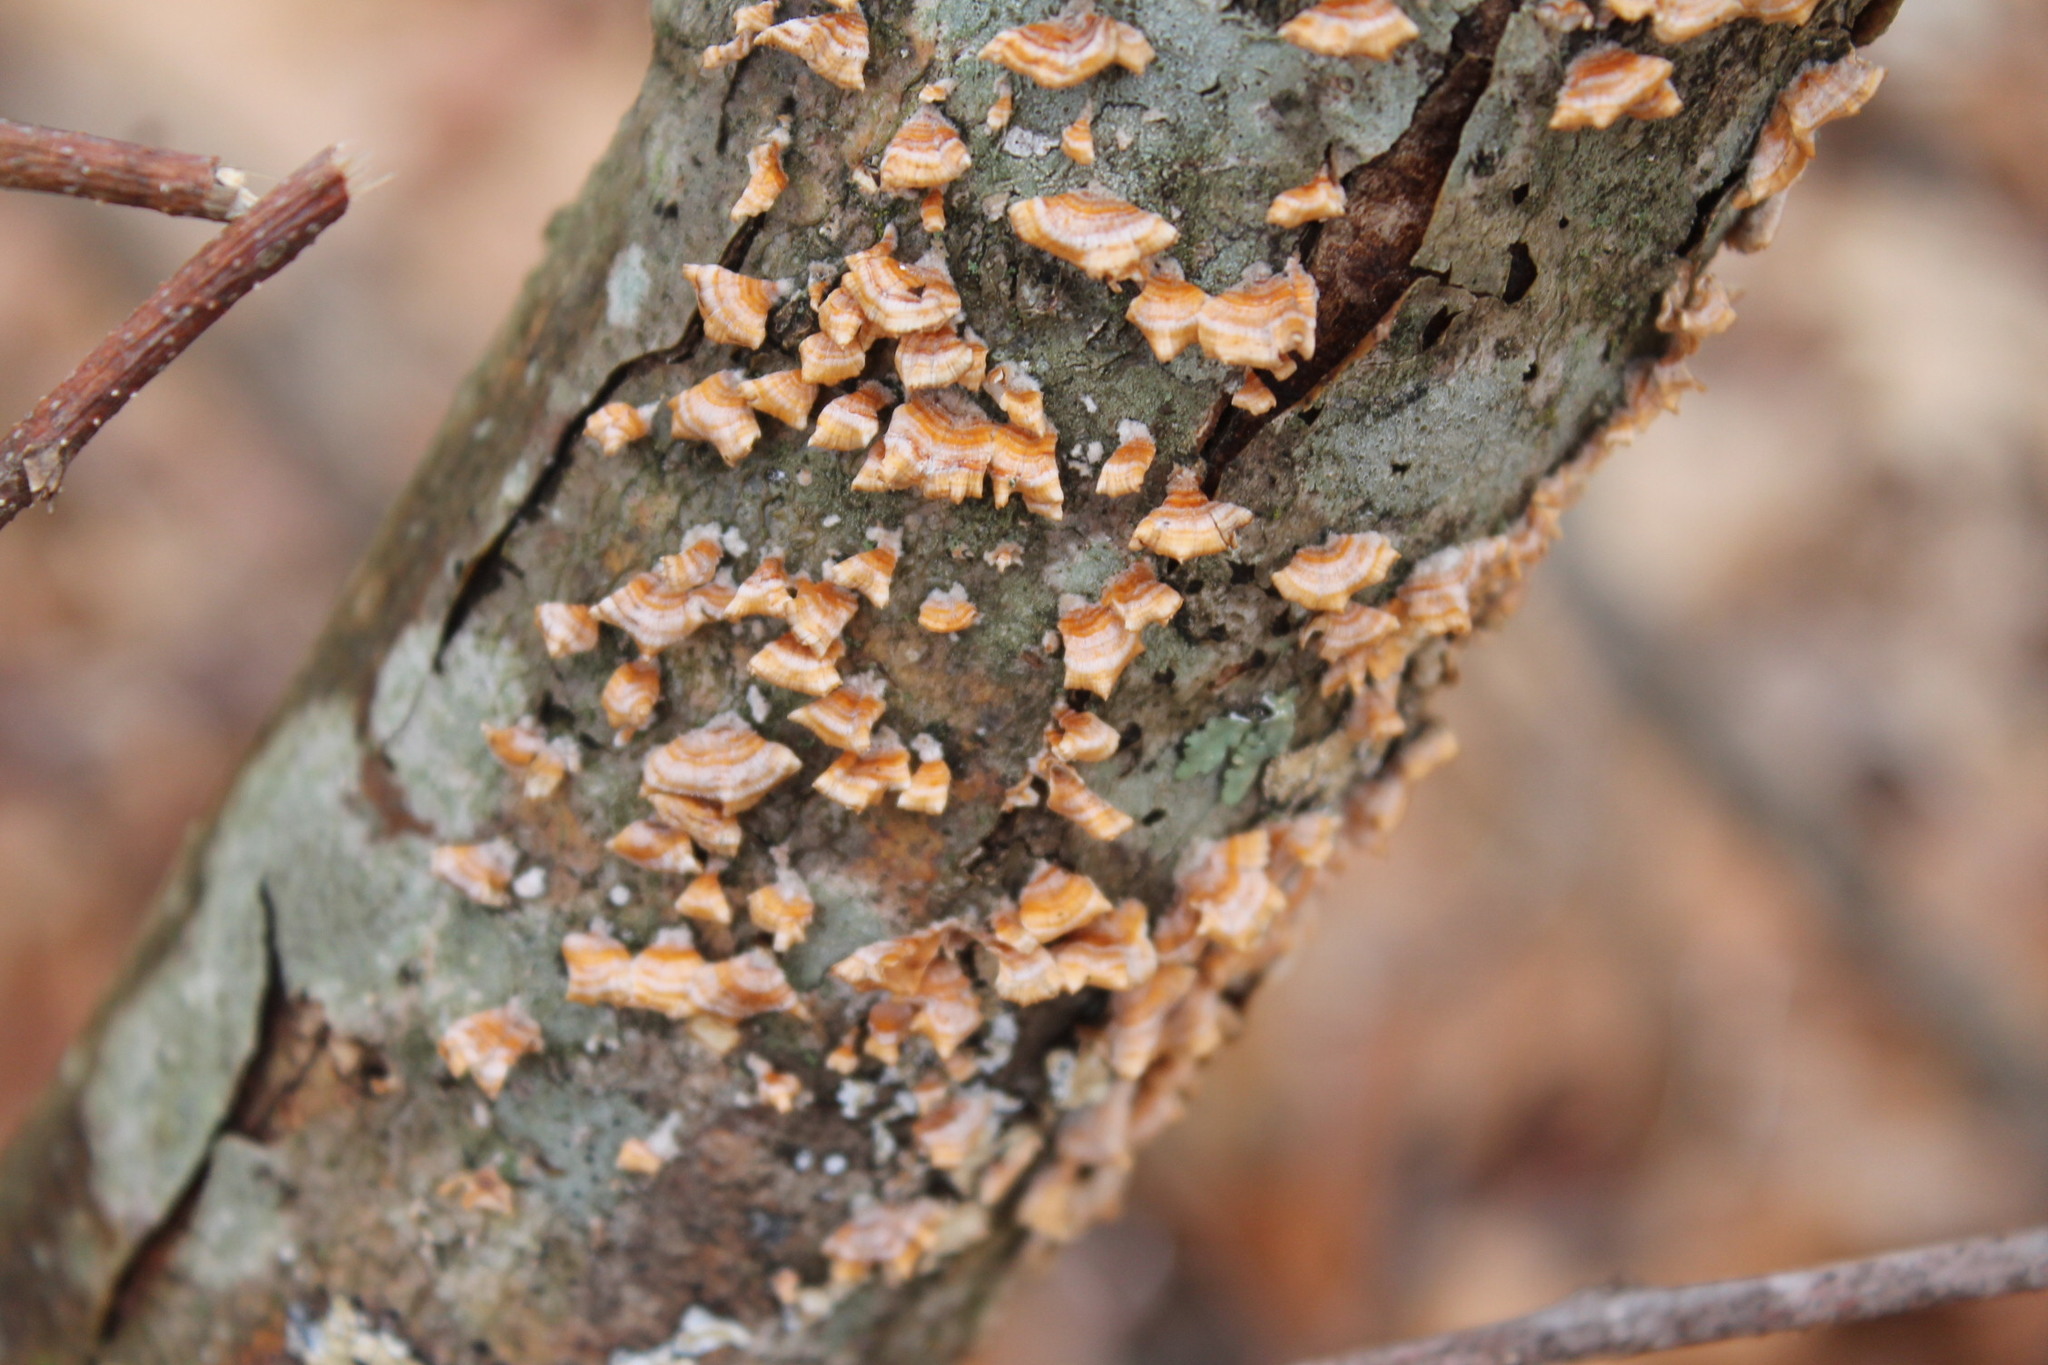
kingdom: Fungi
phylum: Basidiomycota
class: Agaricomycetes
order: Russulales
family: Stereaceae
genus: Stereum
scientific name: Stereum complicatum
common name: Crowded parchment
